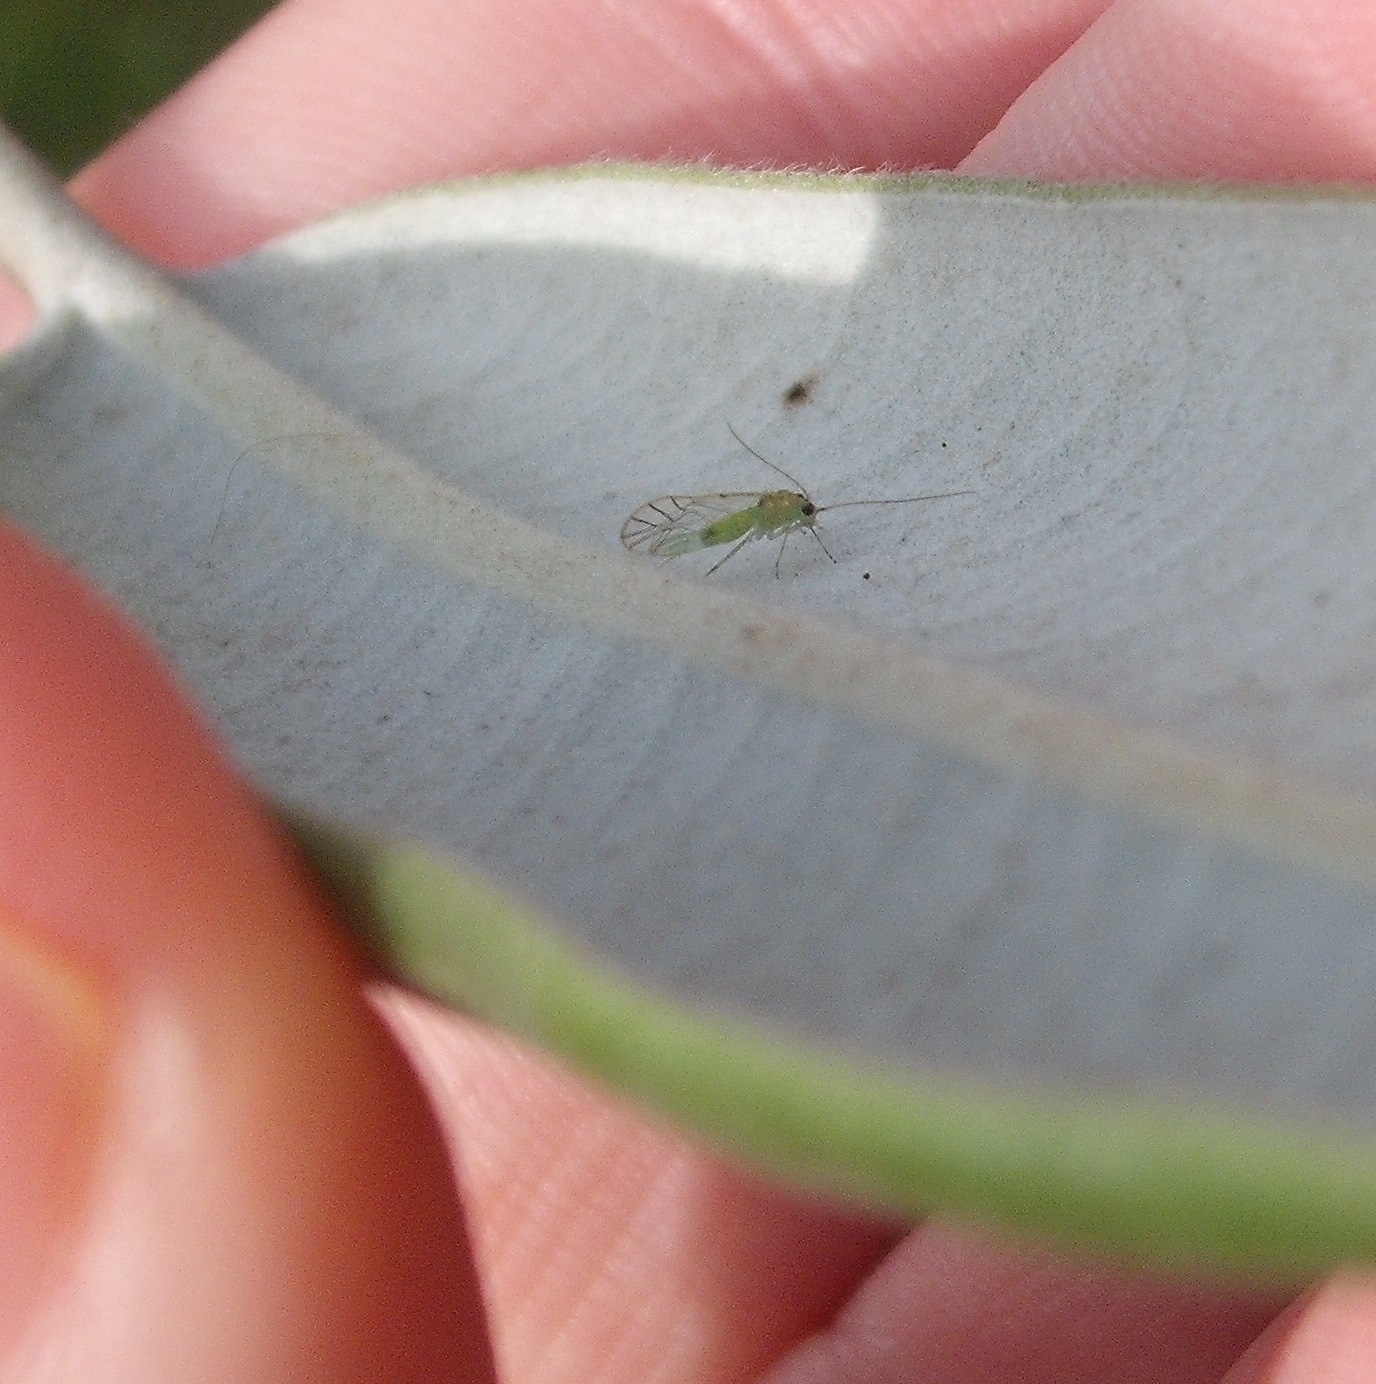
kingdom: Animalia
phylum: Arthropoda
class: Insecta
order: Psocodea
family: Pseudocaeciliidae
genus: Austropsocus
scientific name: Austropsocus viridis
